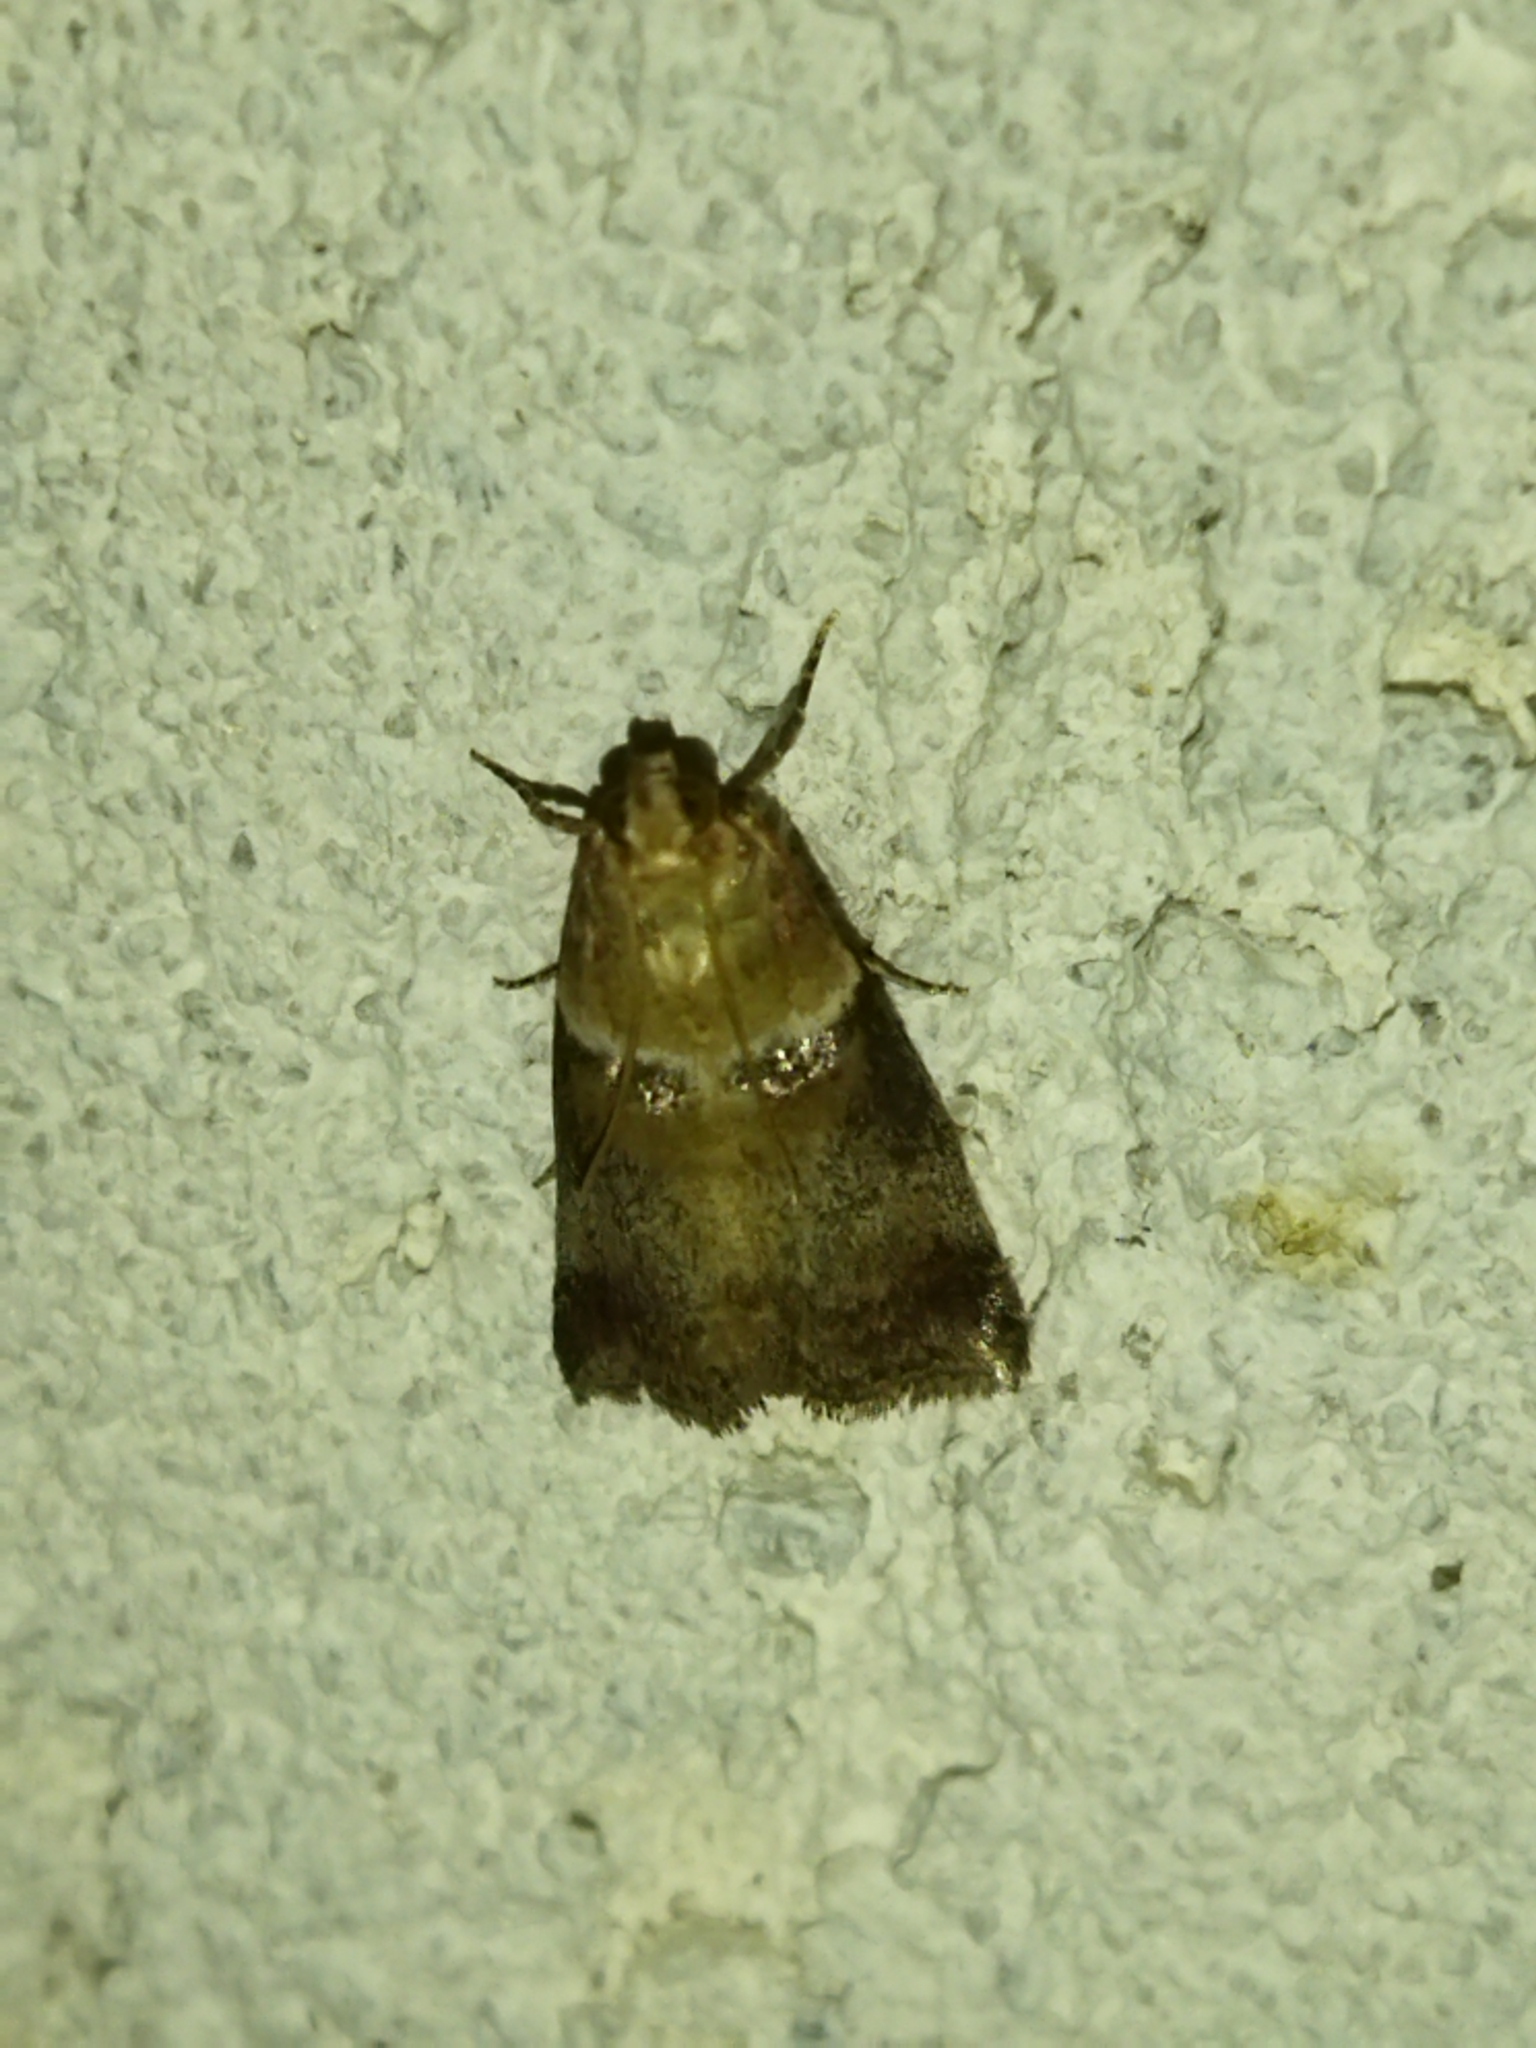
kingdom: Animalia
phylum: Arthropoda
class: Insecta
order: Lepidoptera
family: Pyralidae
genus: Acrobasis
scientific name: Acrobasis tumidana
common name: Scarce oak knot-horn
